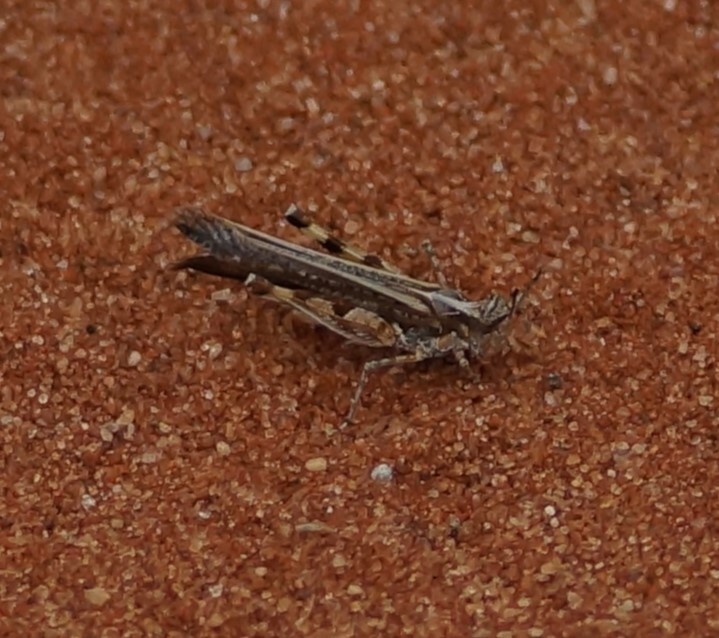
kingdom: Animalia
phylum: Arthropoda
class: Insecta
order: Orthoptera
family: Acrididae
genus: Pycnostictus
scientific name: Pycnostictus seriatus
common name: Common bandwing
